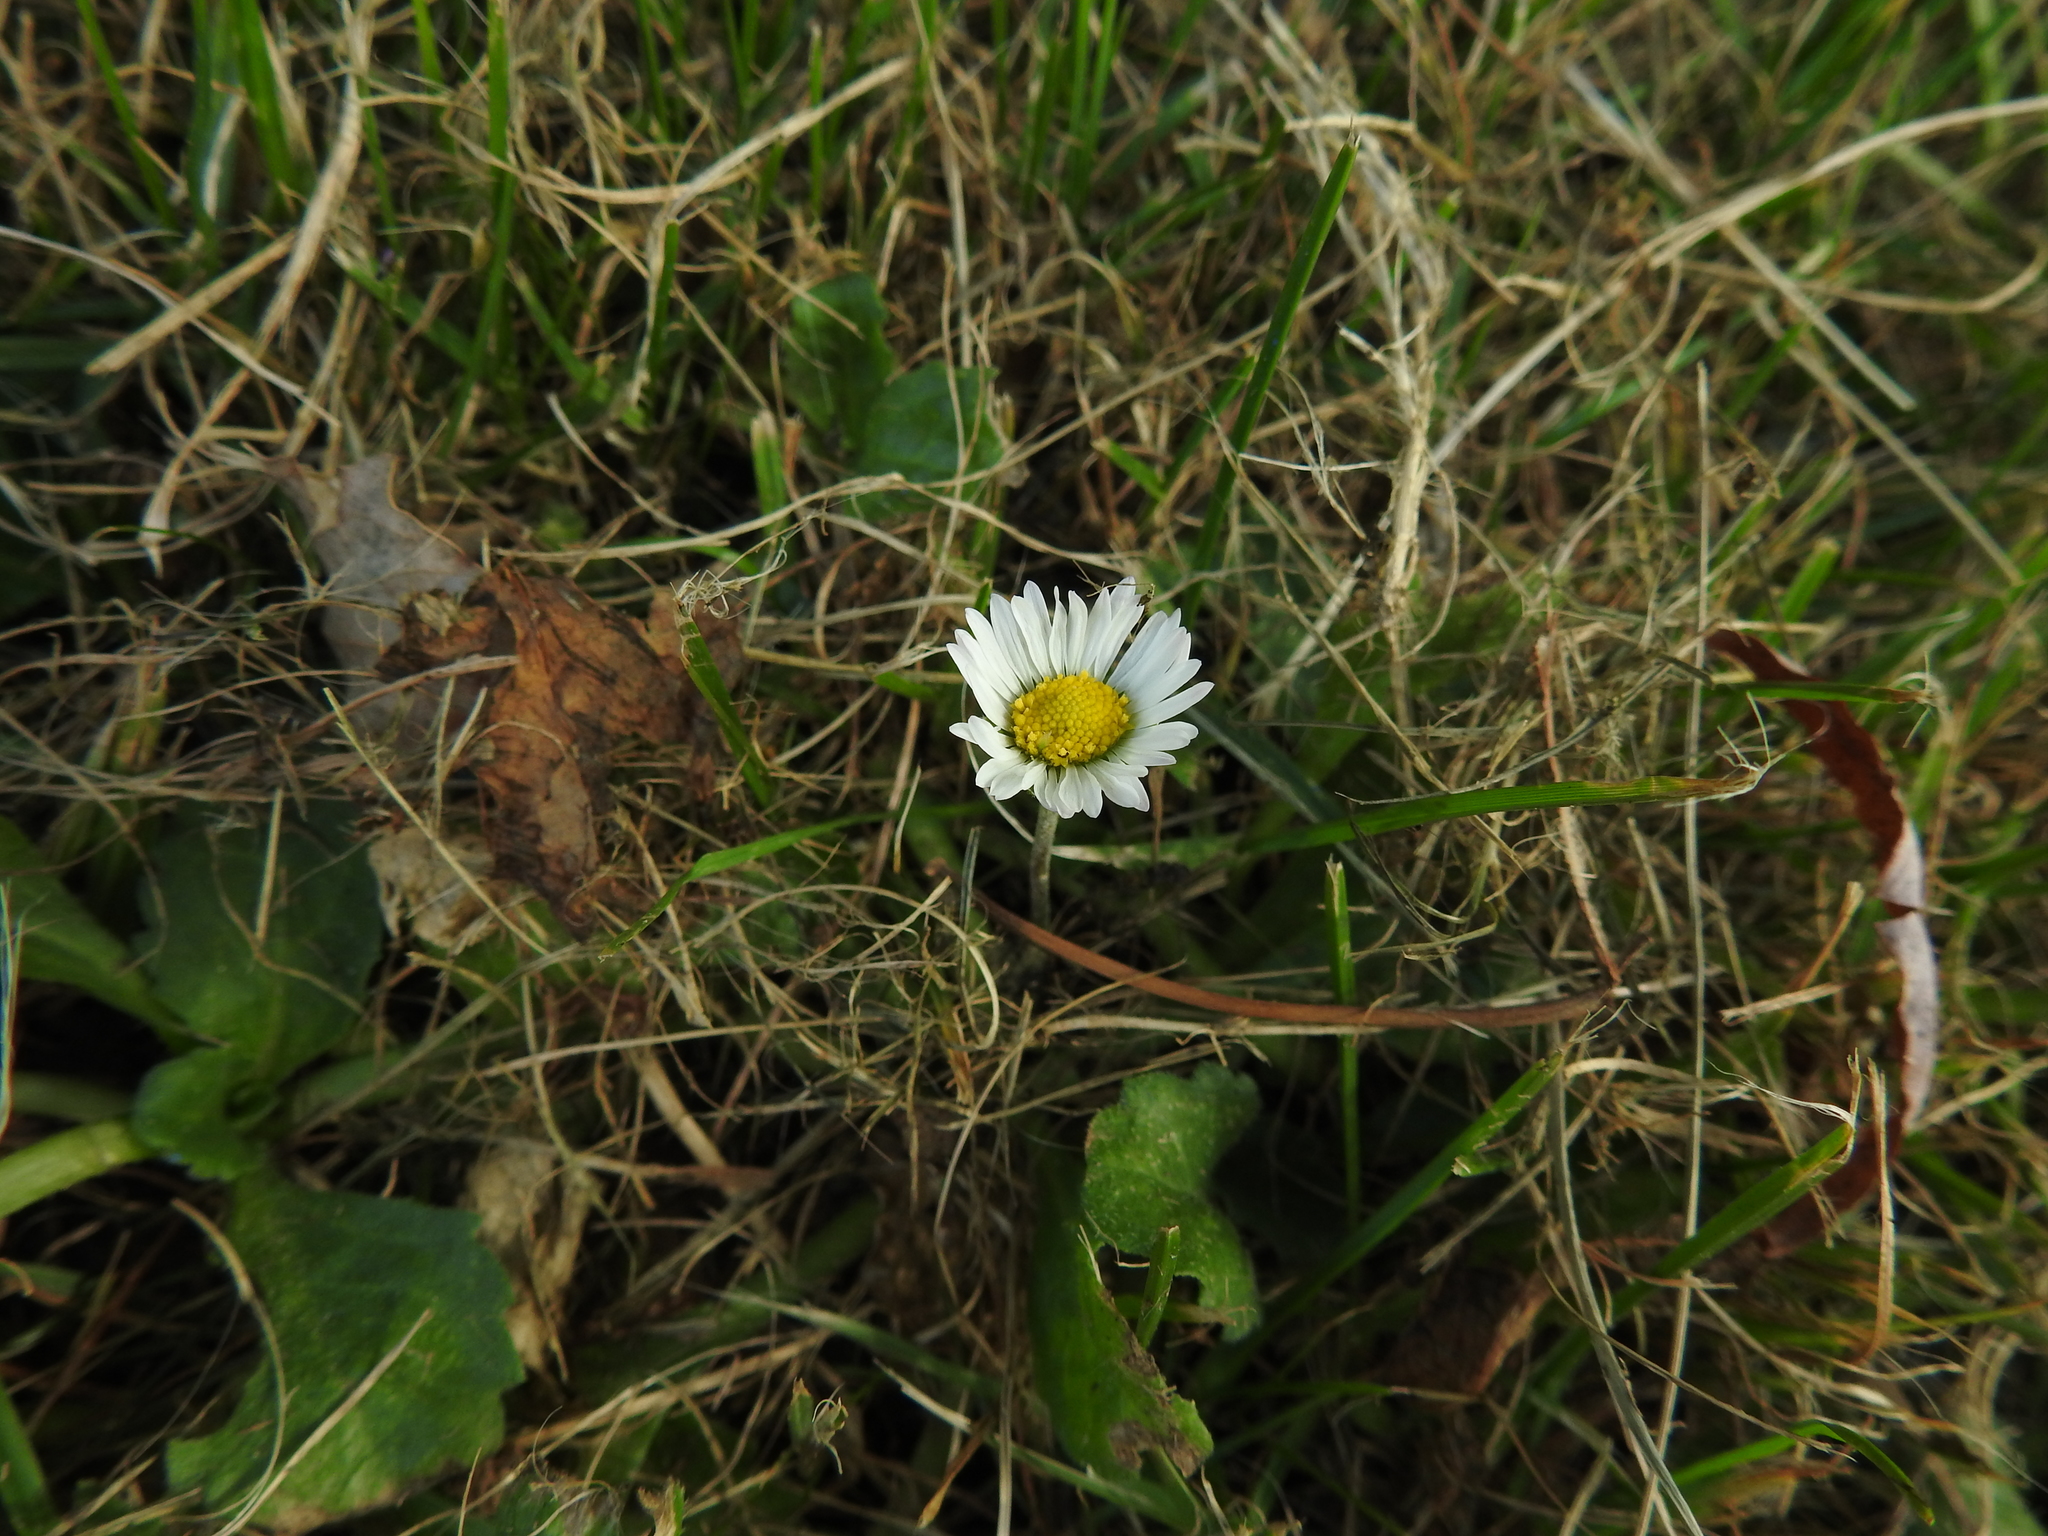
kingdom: Plantae
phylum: Tracheophyta
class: Magnoliopsida
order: Asterales
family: Asteraceae
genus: Bellis
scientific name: Bellis perennis
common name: Lawndaisy
